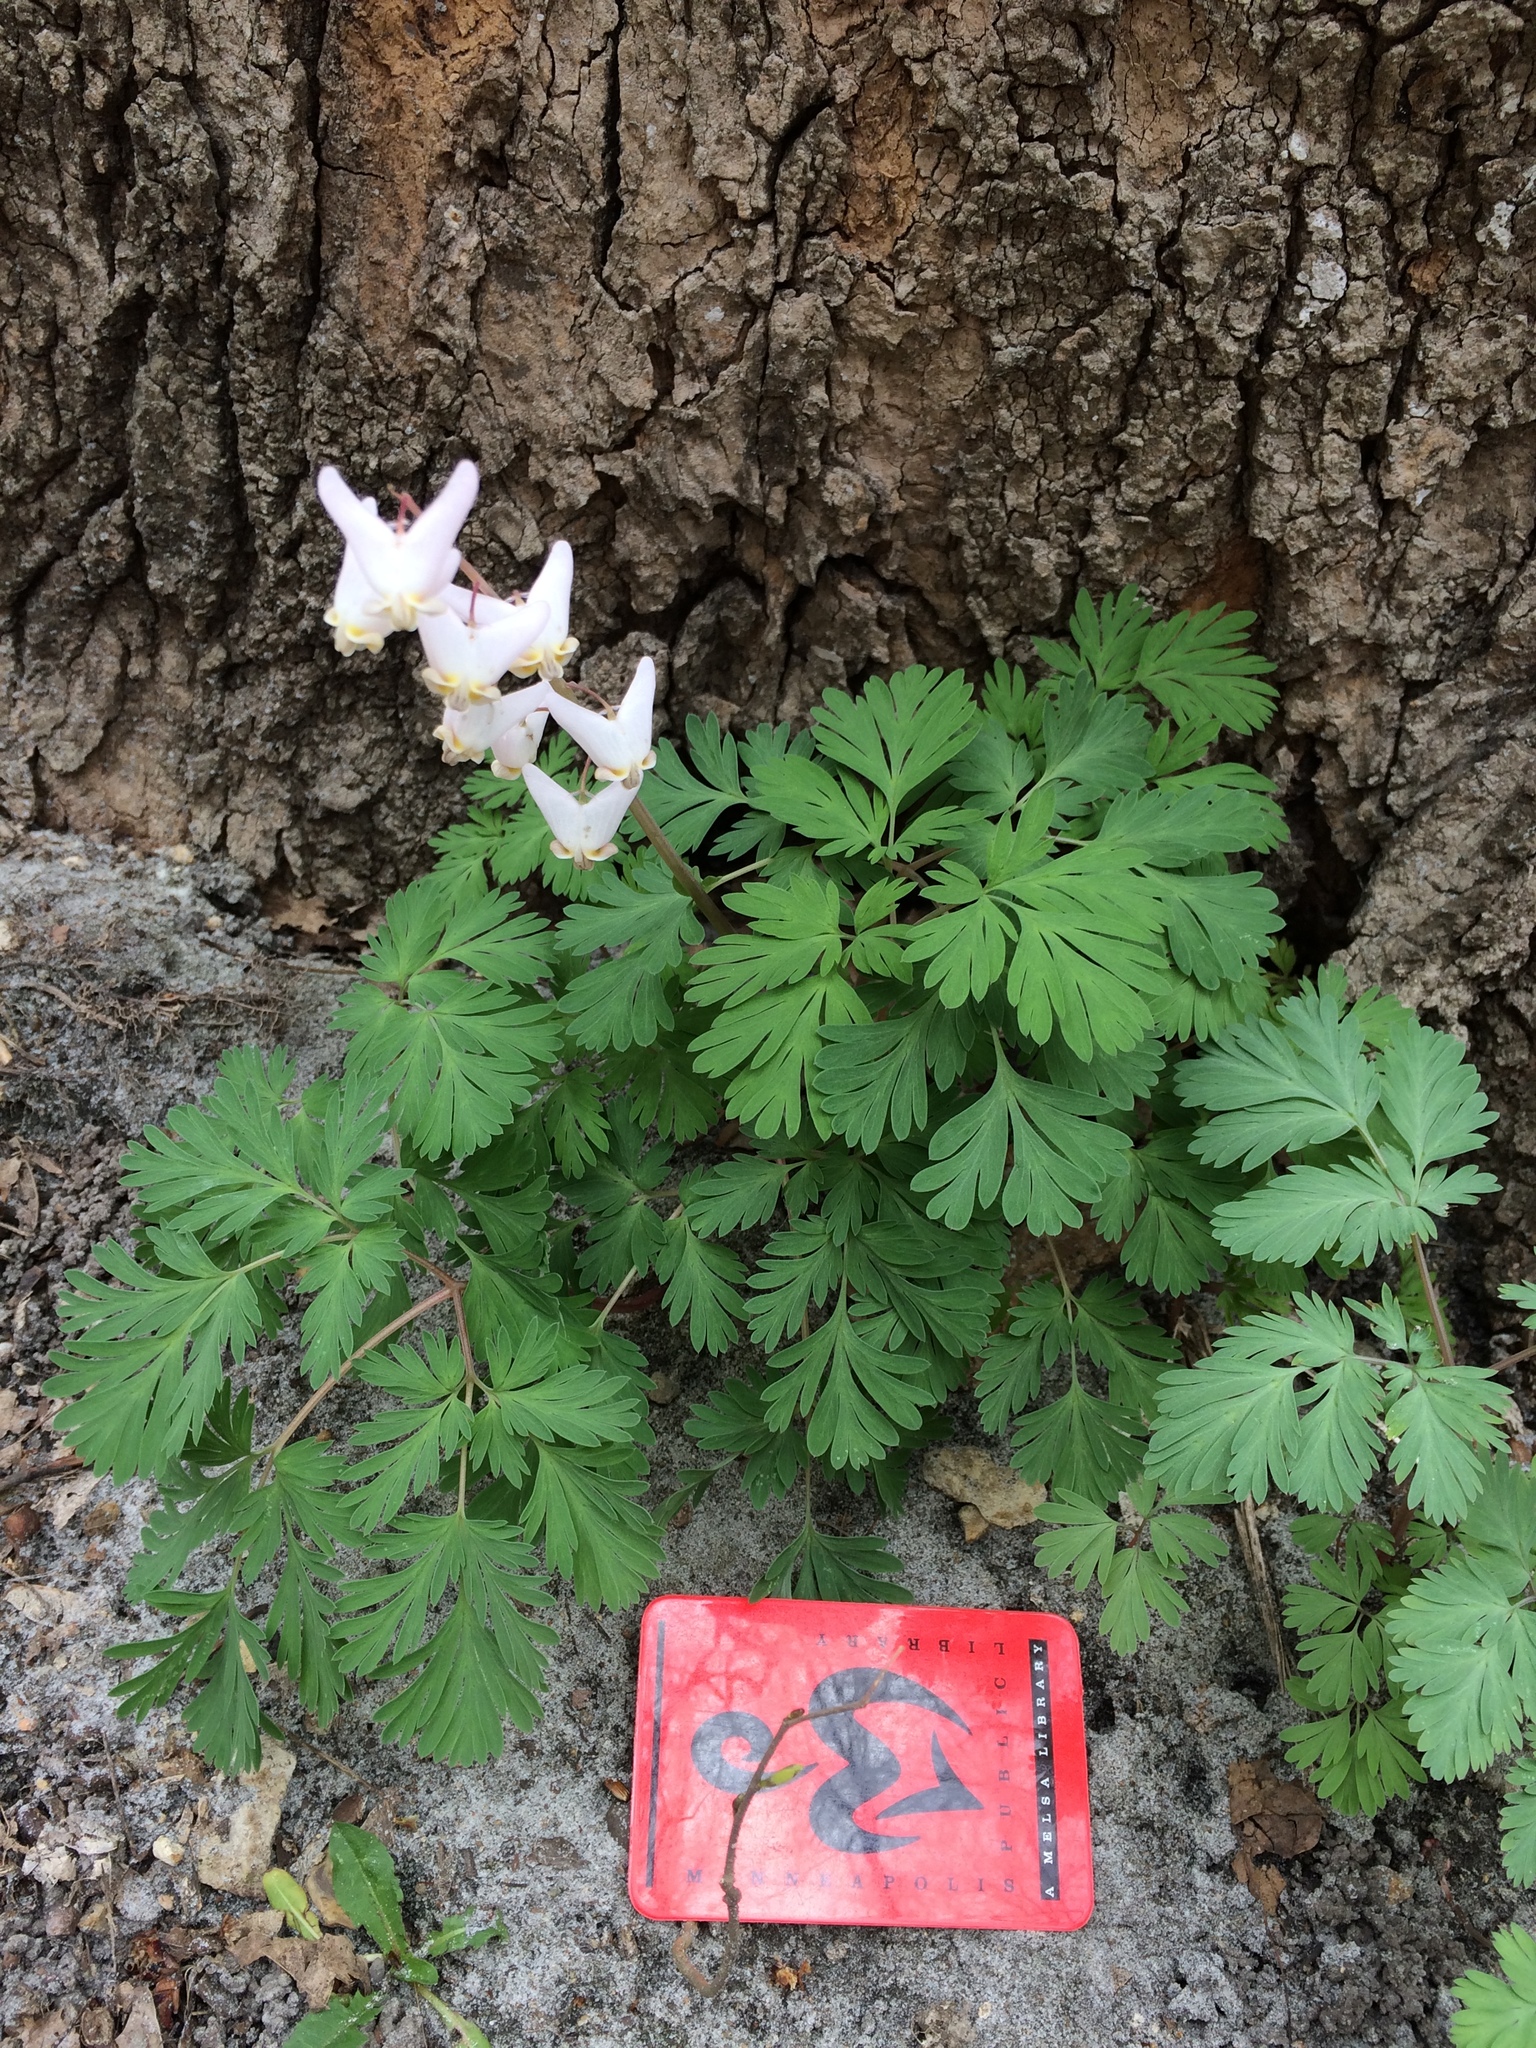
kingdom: Plantae
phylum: Tracheophyta
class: Magnoliopsida
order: Ranunculales
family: Papaveraceae
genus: Dicentra
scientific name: Dicentra cucullaria
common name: Dutchman's breeches
